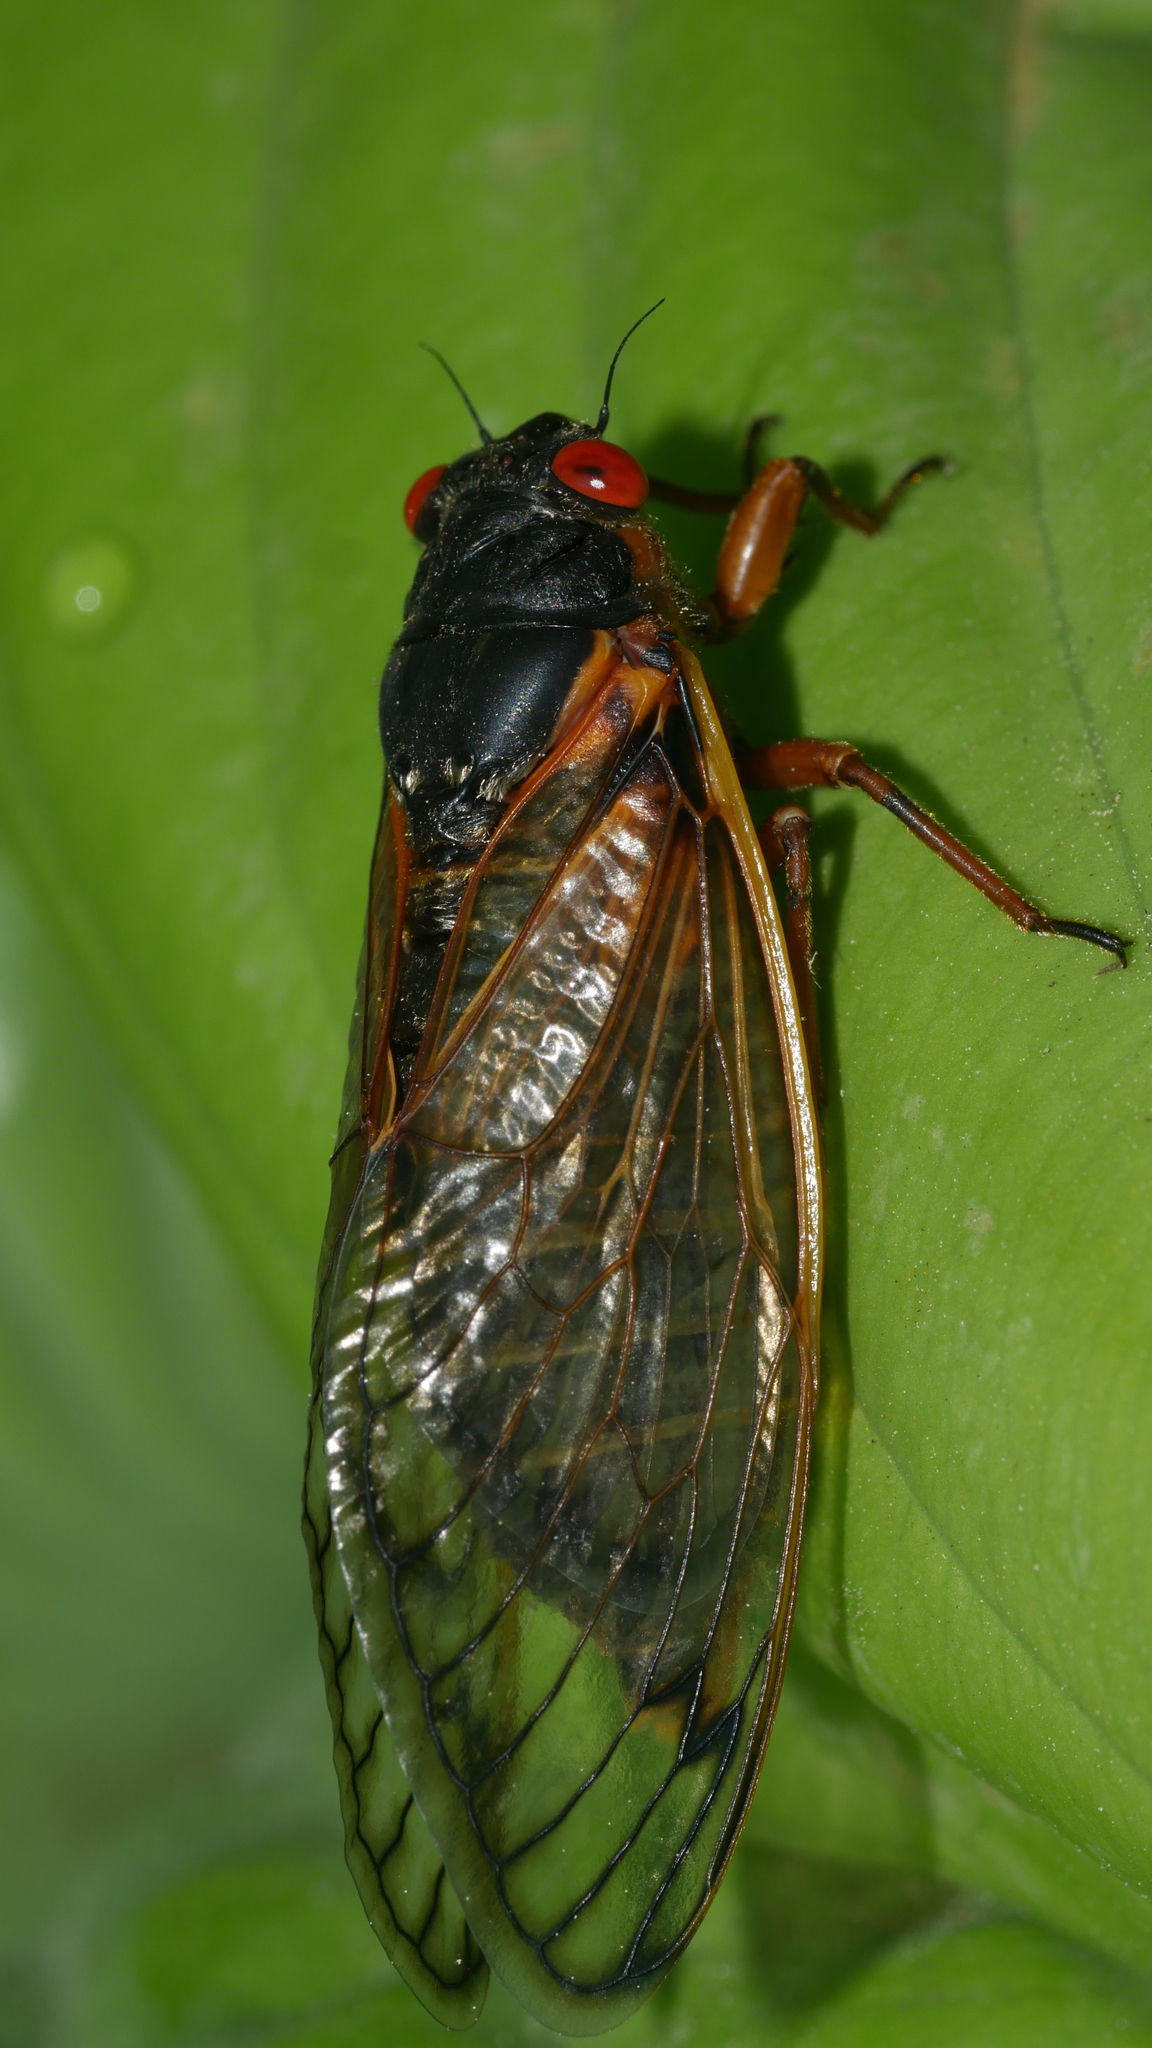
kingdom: Animalia
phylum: Arthropoda
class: Insecta
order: Hemiptera
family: Cicadidae
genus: Magicicada
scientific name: Magicicada septendecim
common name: Periodical cicada
